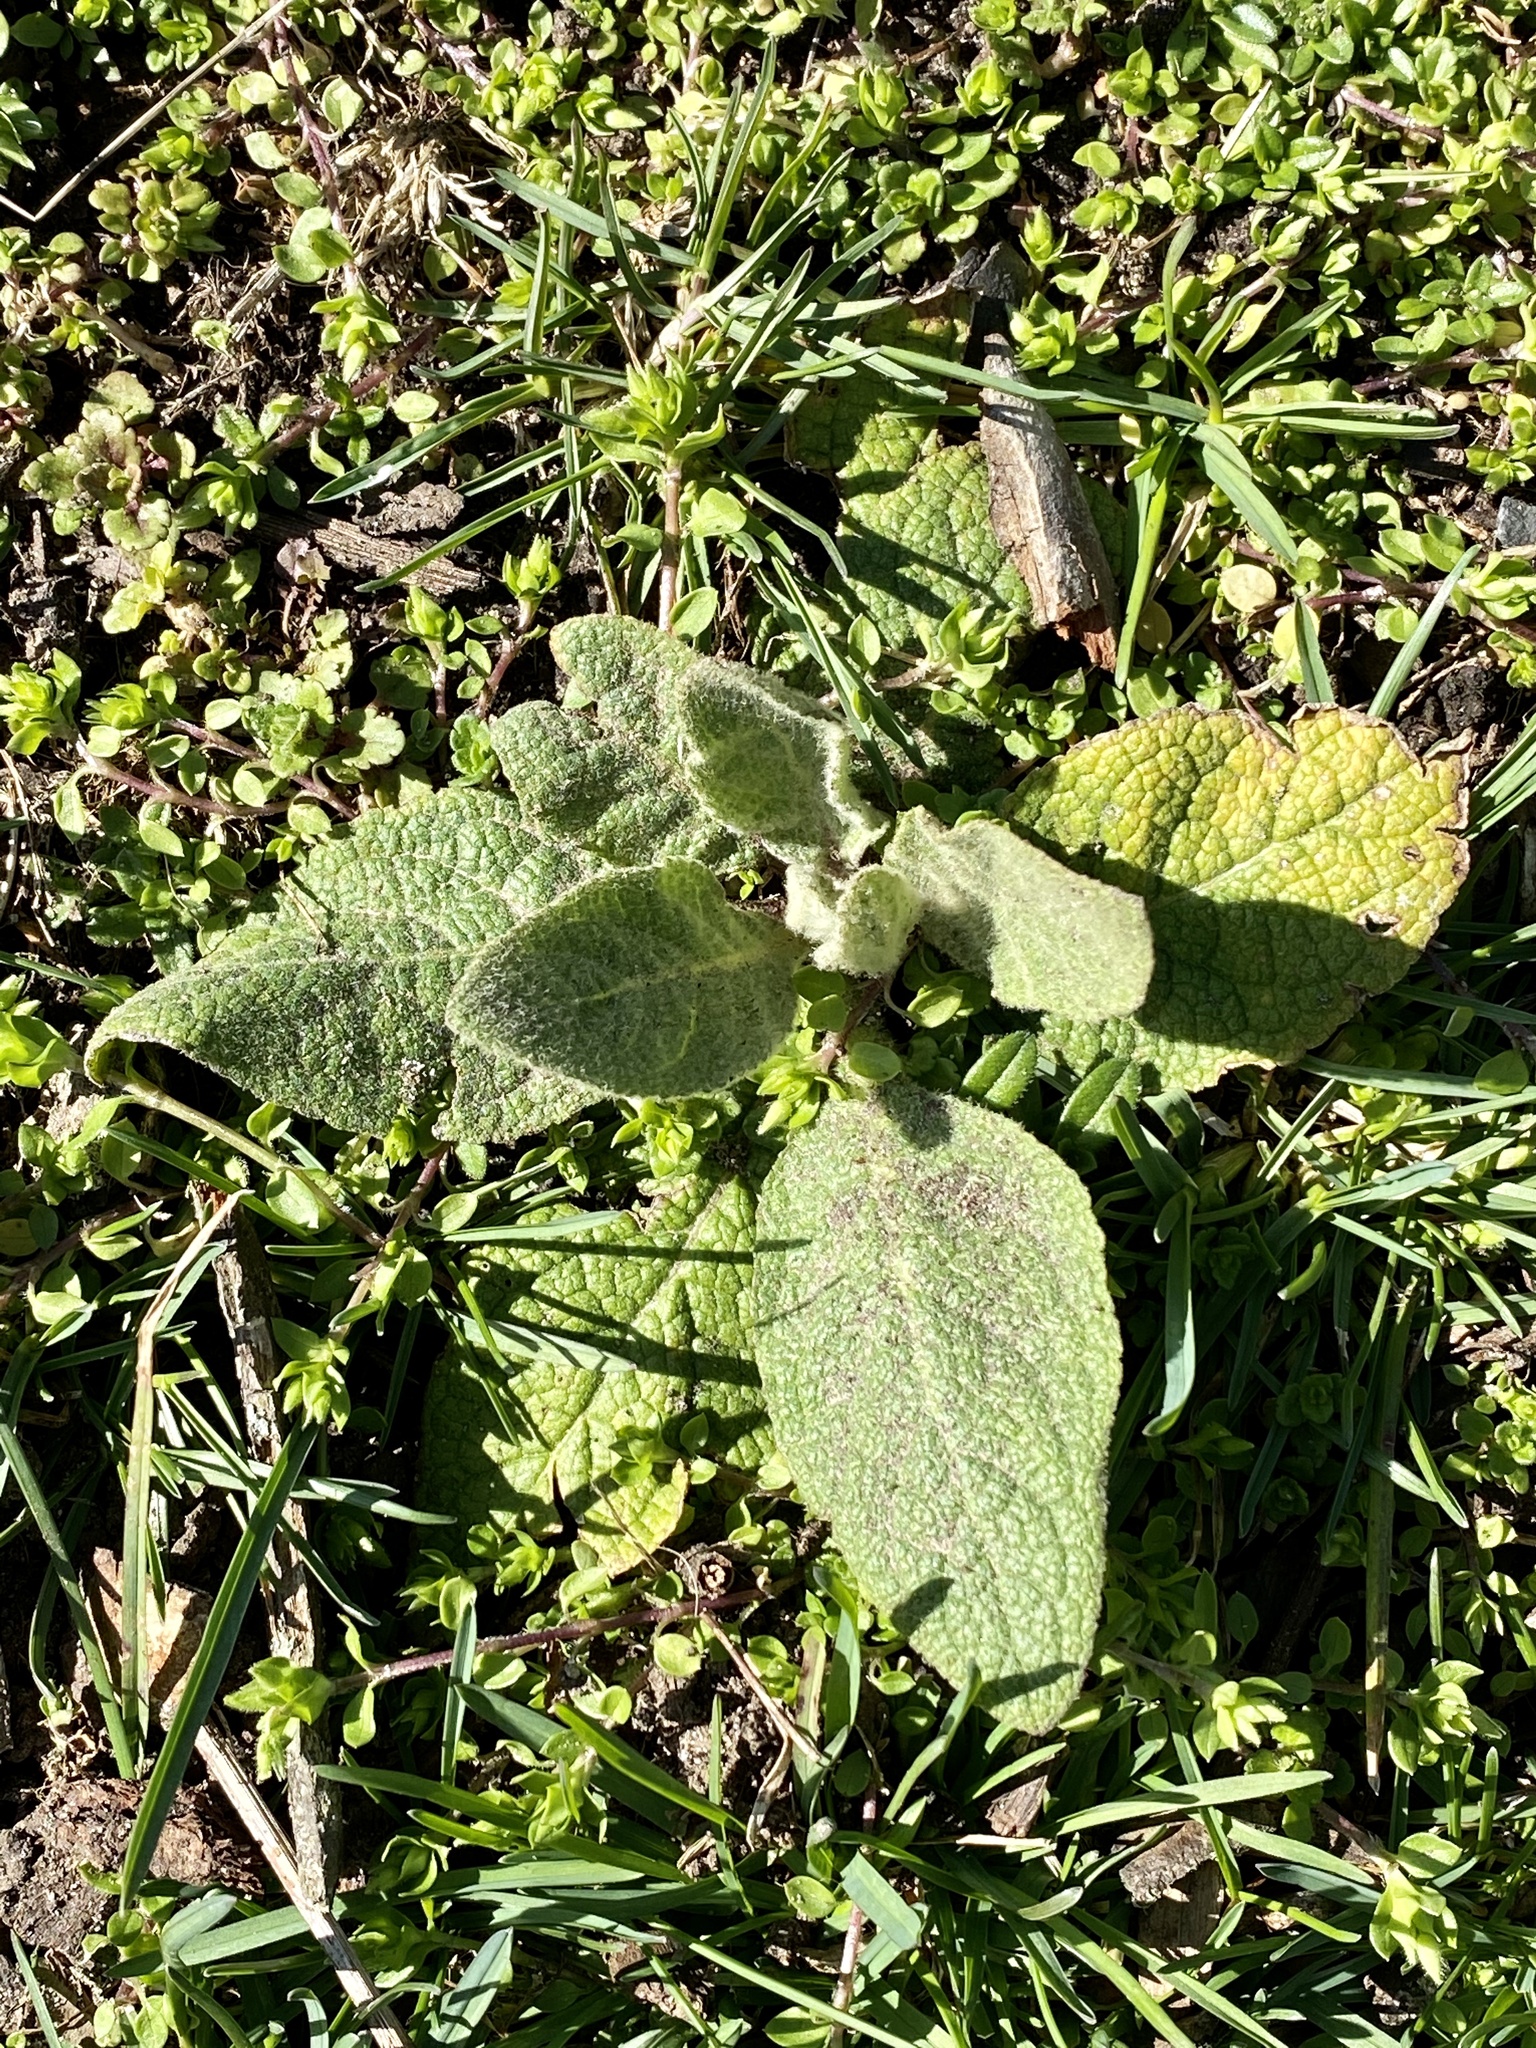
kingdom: Plantae
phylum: Tracheophyta
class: Magnoliopsida
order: Lamiales
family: Scrophulariaceae
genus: Verbascum
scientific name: Verbascum thapsus
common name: Common mullein
